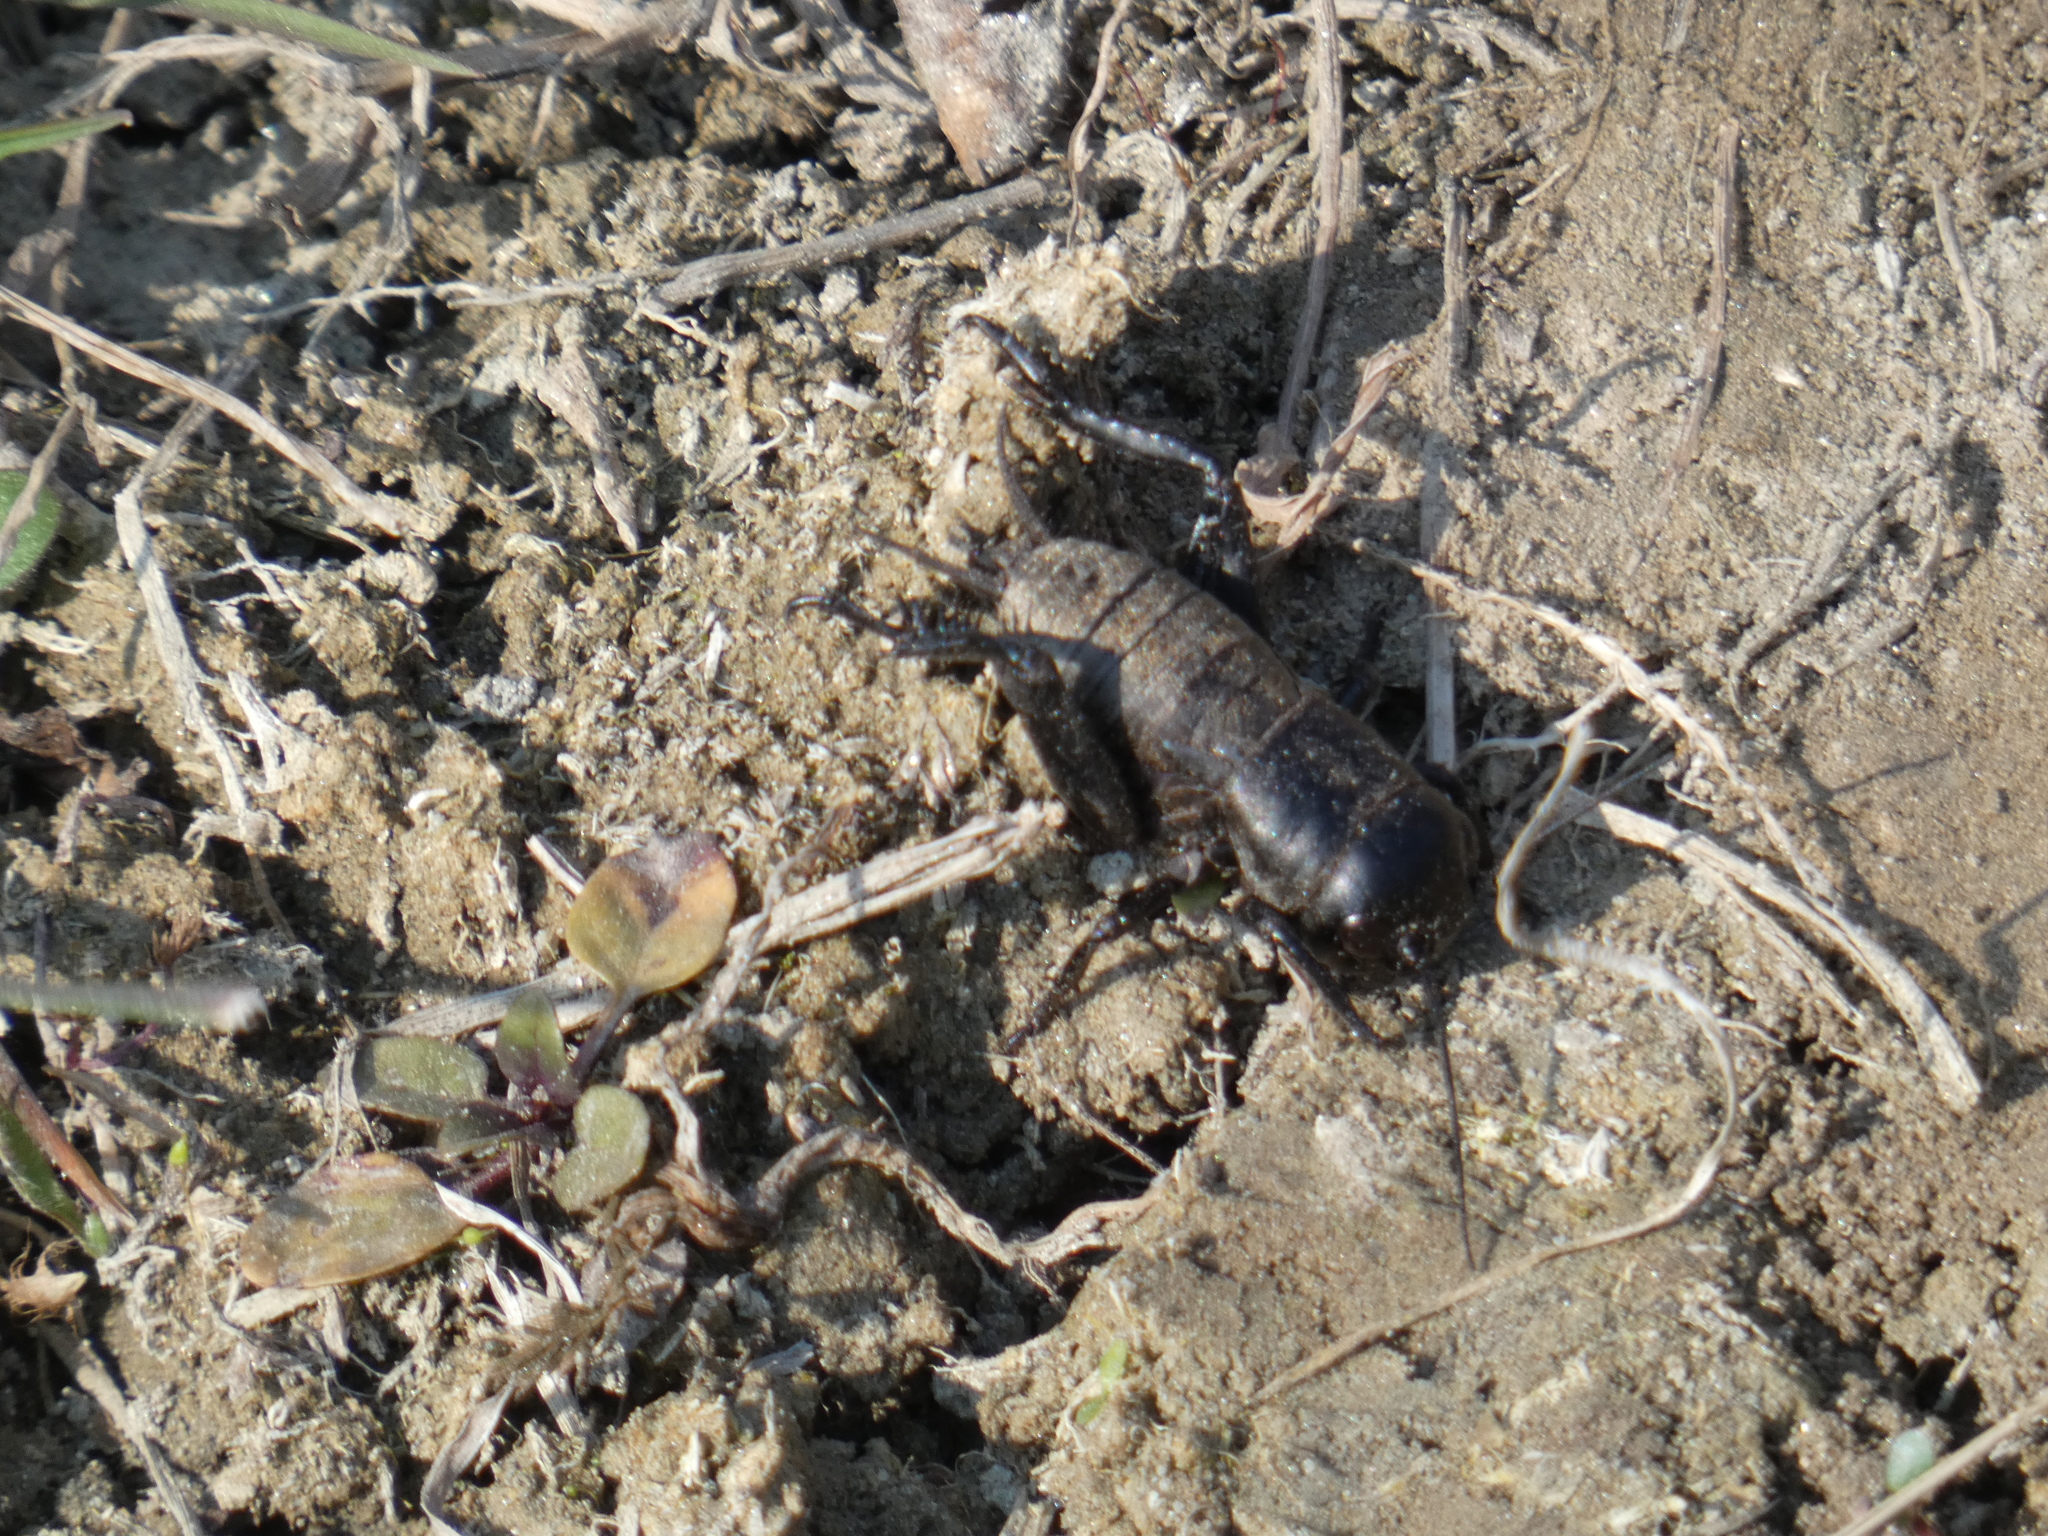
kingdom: Animalia
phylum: Arthropoda
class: Insecta
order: Orthoptera
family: Gryllidae
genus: Gryllus
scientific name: Gryllus campestris
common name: Field cricket
